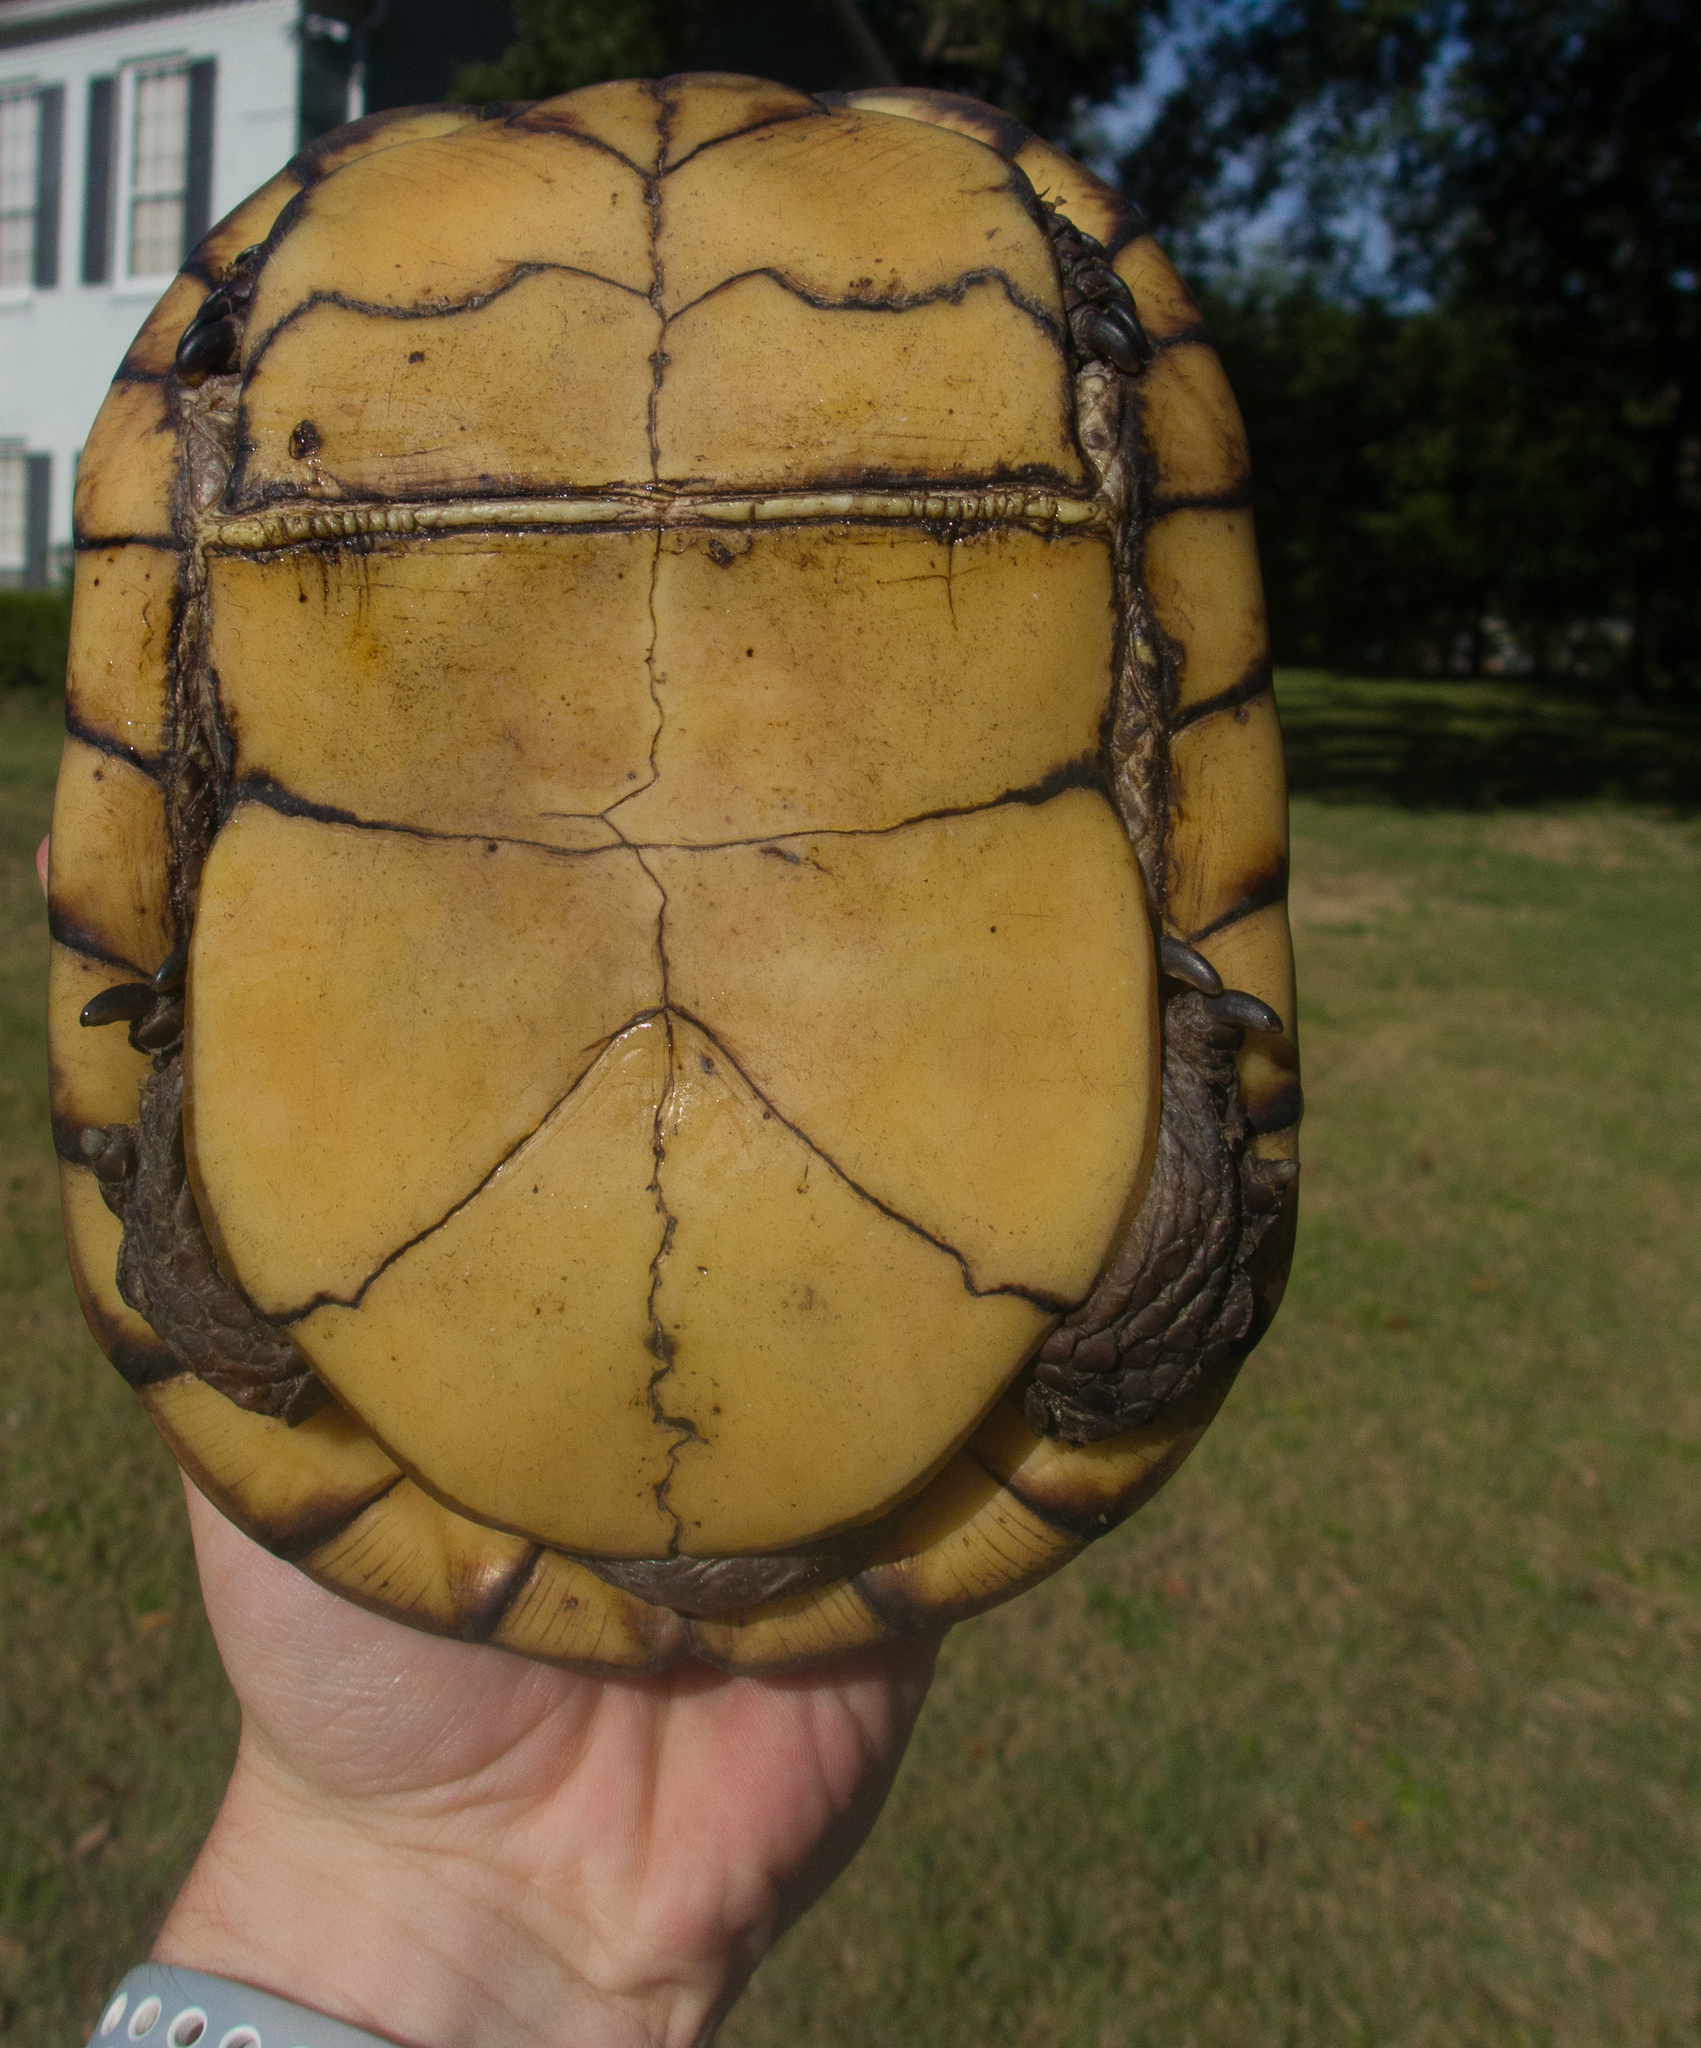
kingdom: Animalia
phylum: Chordata
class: Testudines
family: Emydidae
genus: Terrapene
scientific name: Terrapene carolina
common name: Common box turtle
